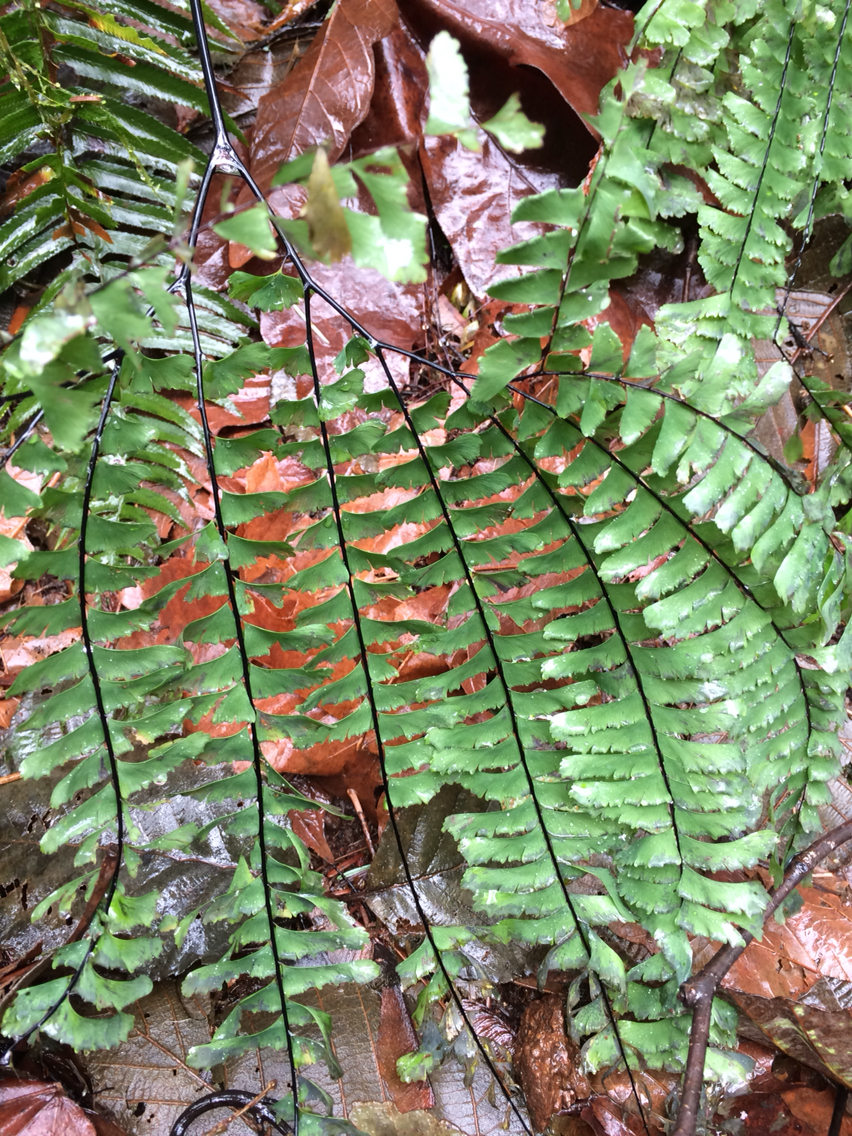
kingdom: Plantae
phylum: Tracheophyta
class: Polypodiopsida
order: Polypodiales
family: Pteridaceae
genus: Adiantum
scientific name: Adiantum aleuticum
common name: Aleutian maidenhair fern
